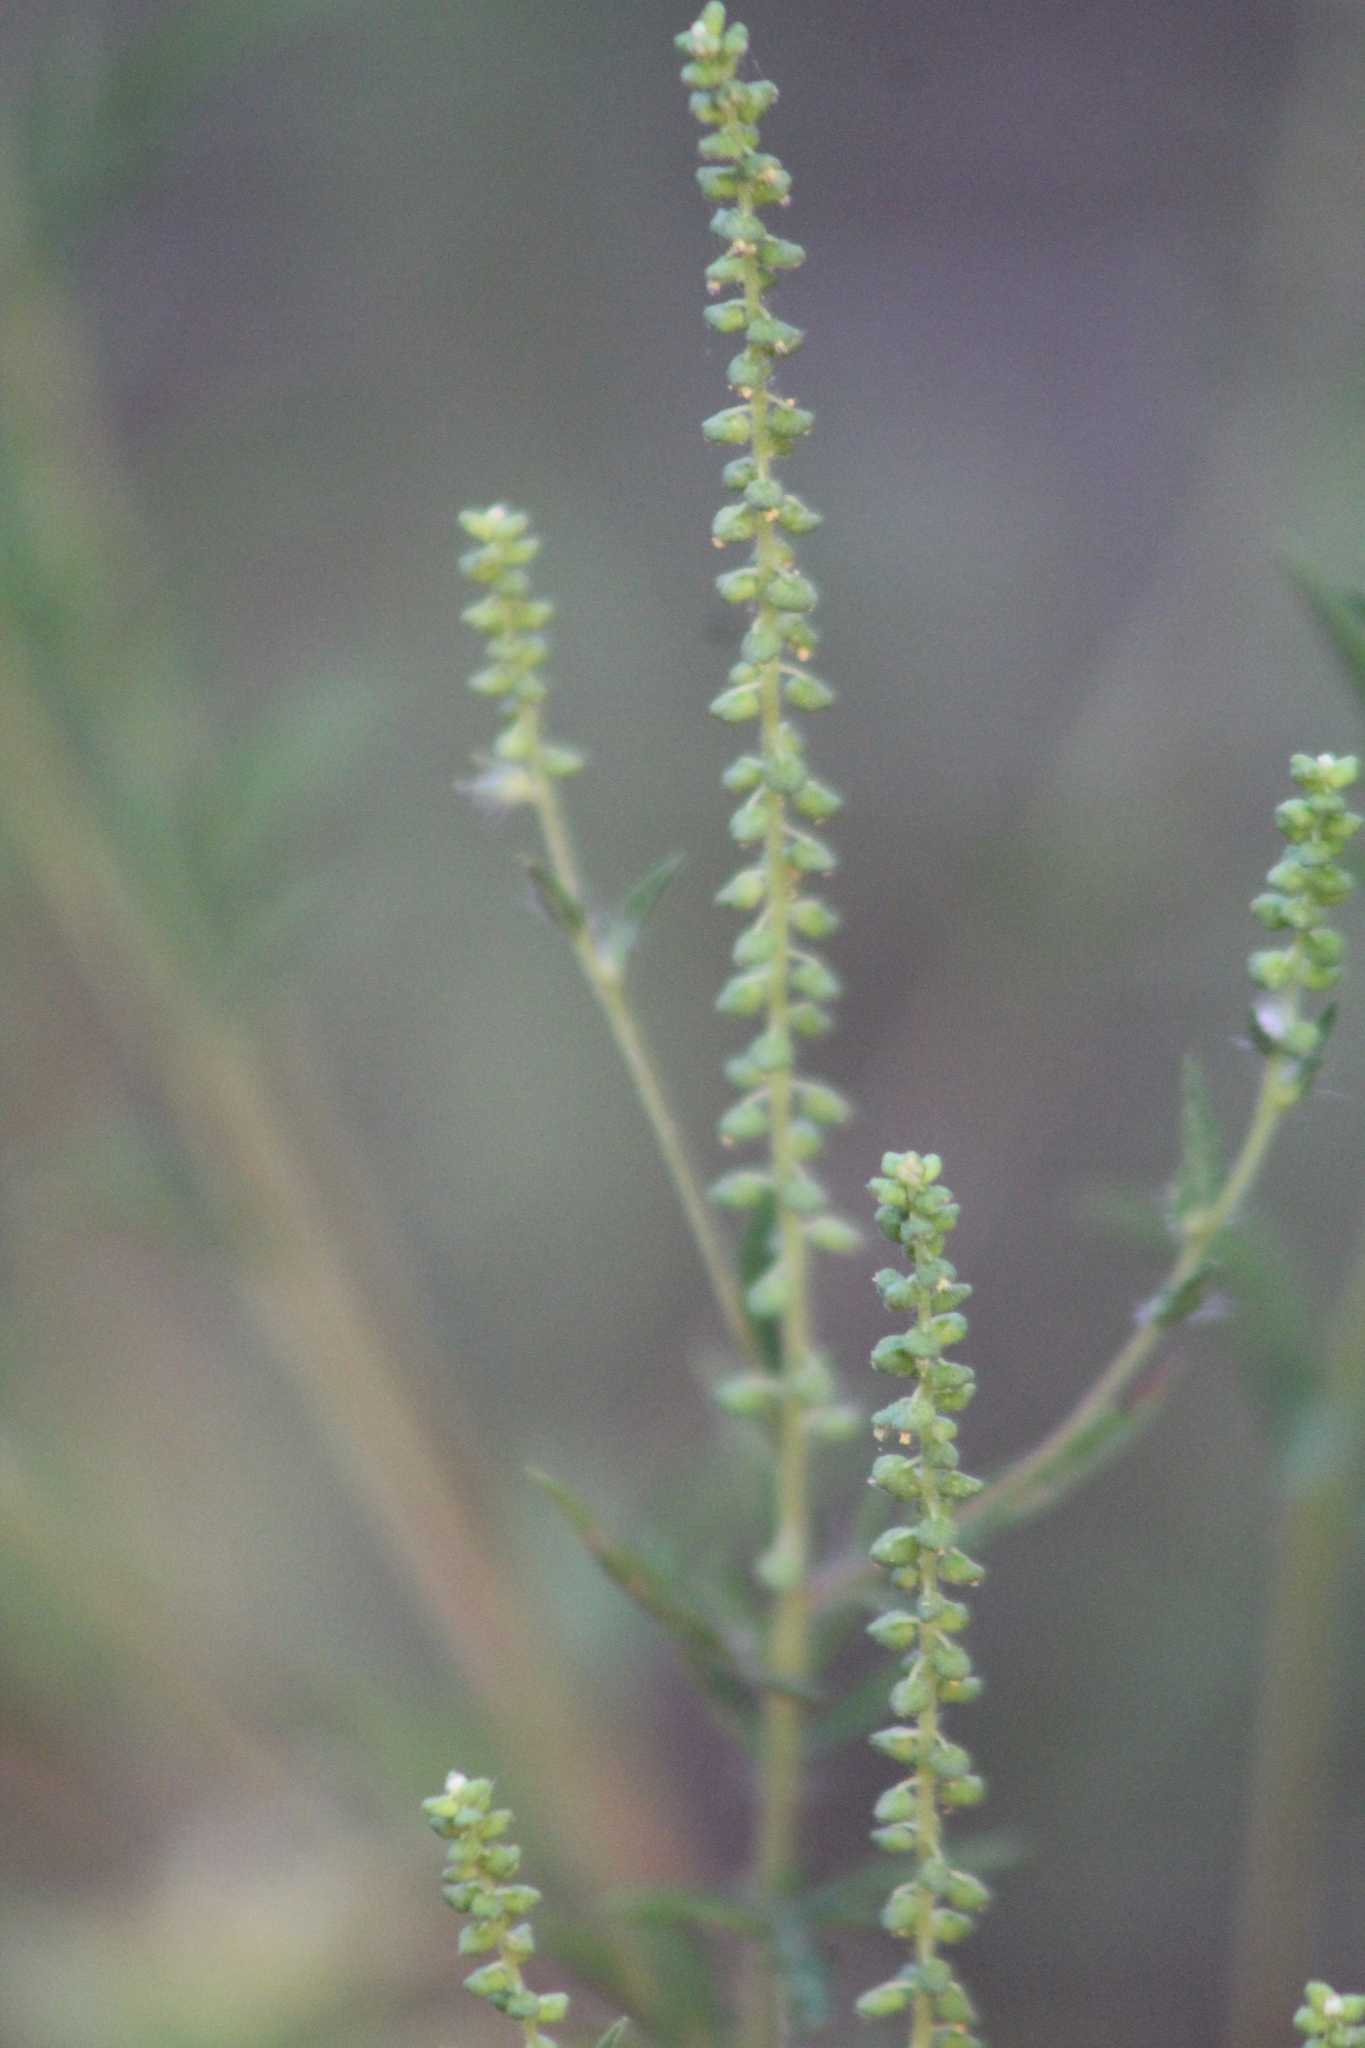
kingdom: Plantae
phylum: Tracheophyta
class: Magnoliopsida
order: Asterales
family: Asteraceae
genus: Ambrosia
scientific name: Ambrosia artemisiifolia
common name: Annual ragweed
